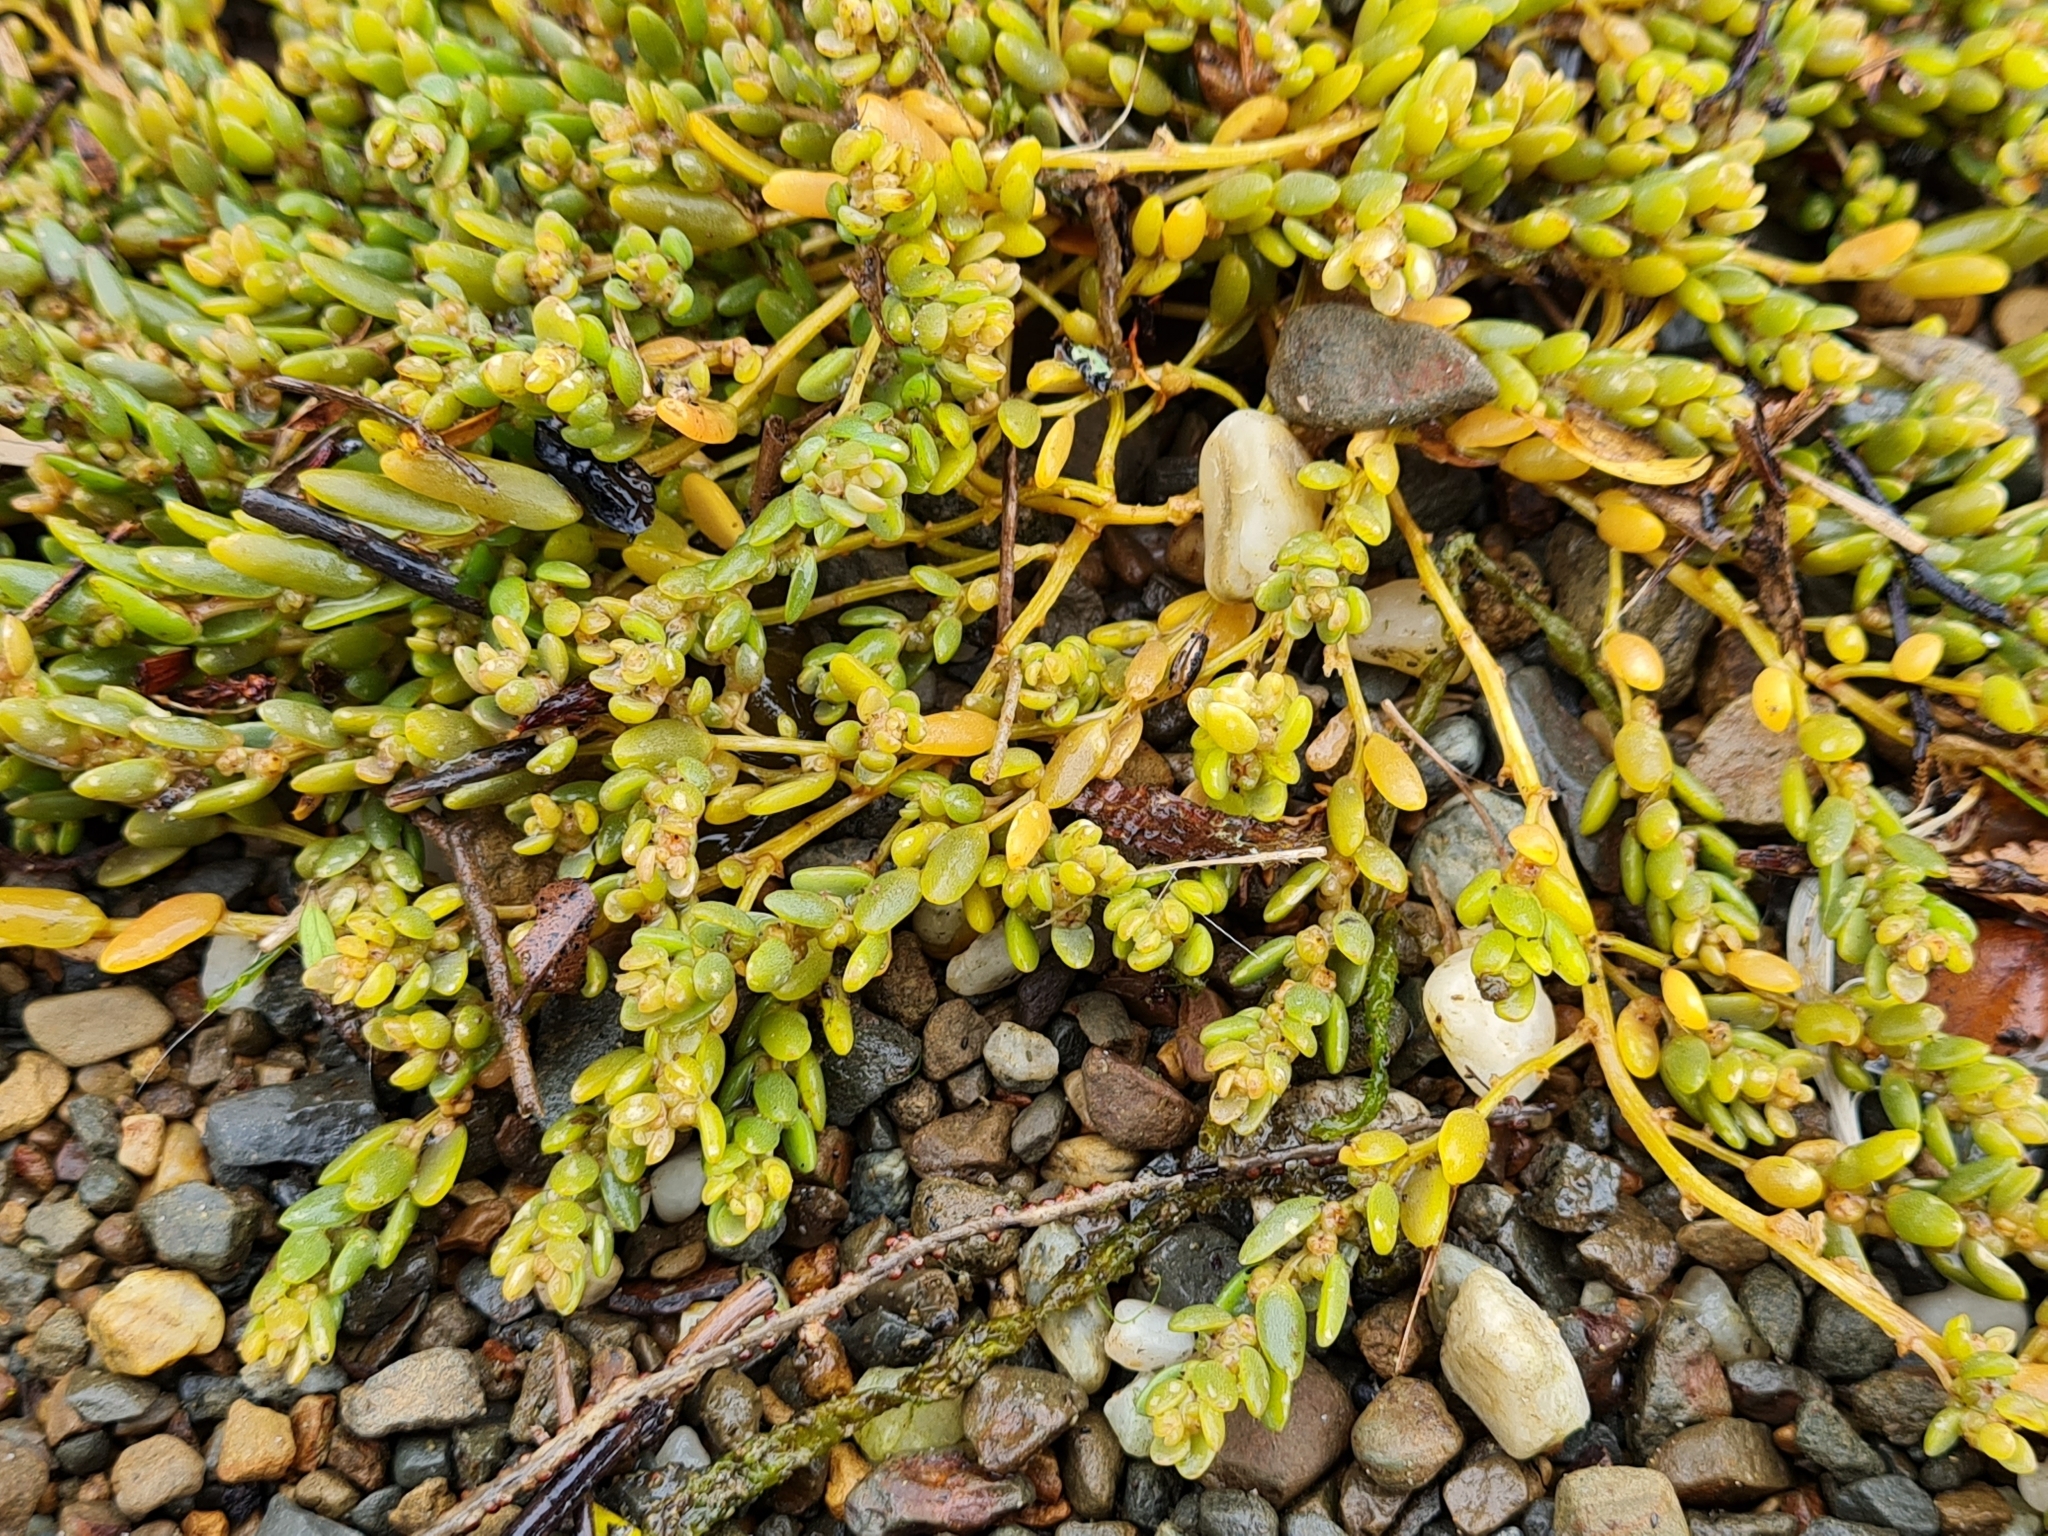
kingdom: Plantae
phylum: Tracheophyta
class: Magnoliopsida
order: Caryophyllales
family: Amaranthaceae
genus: Suaeda
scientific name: Suaeda novae-zelandiae
